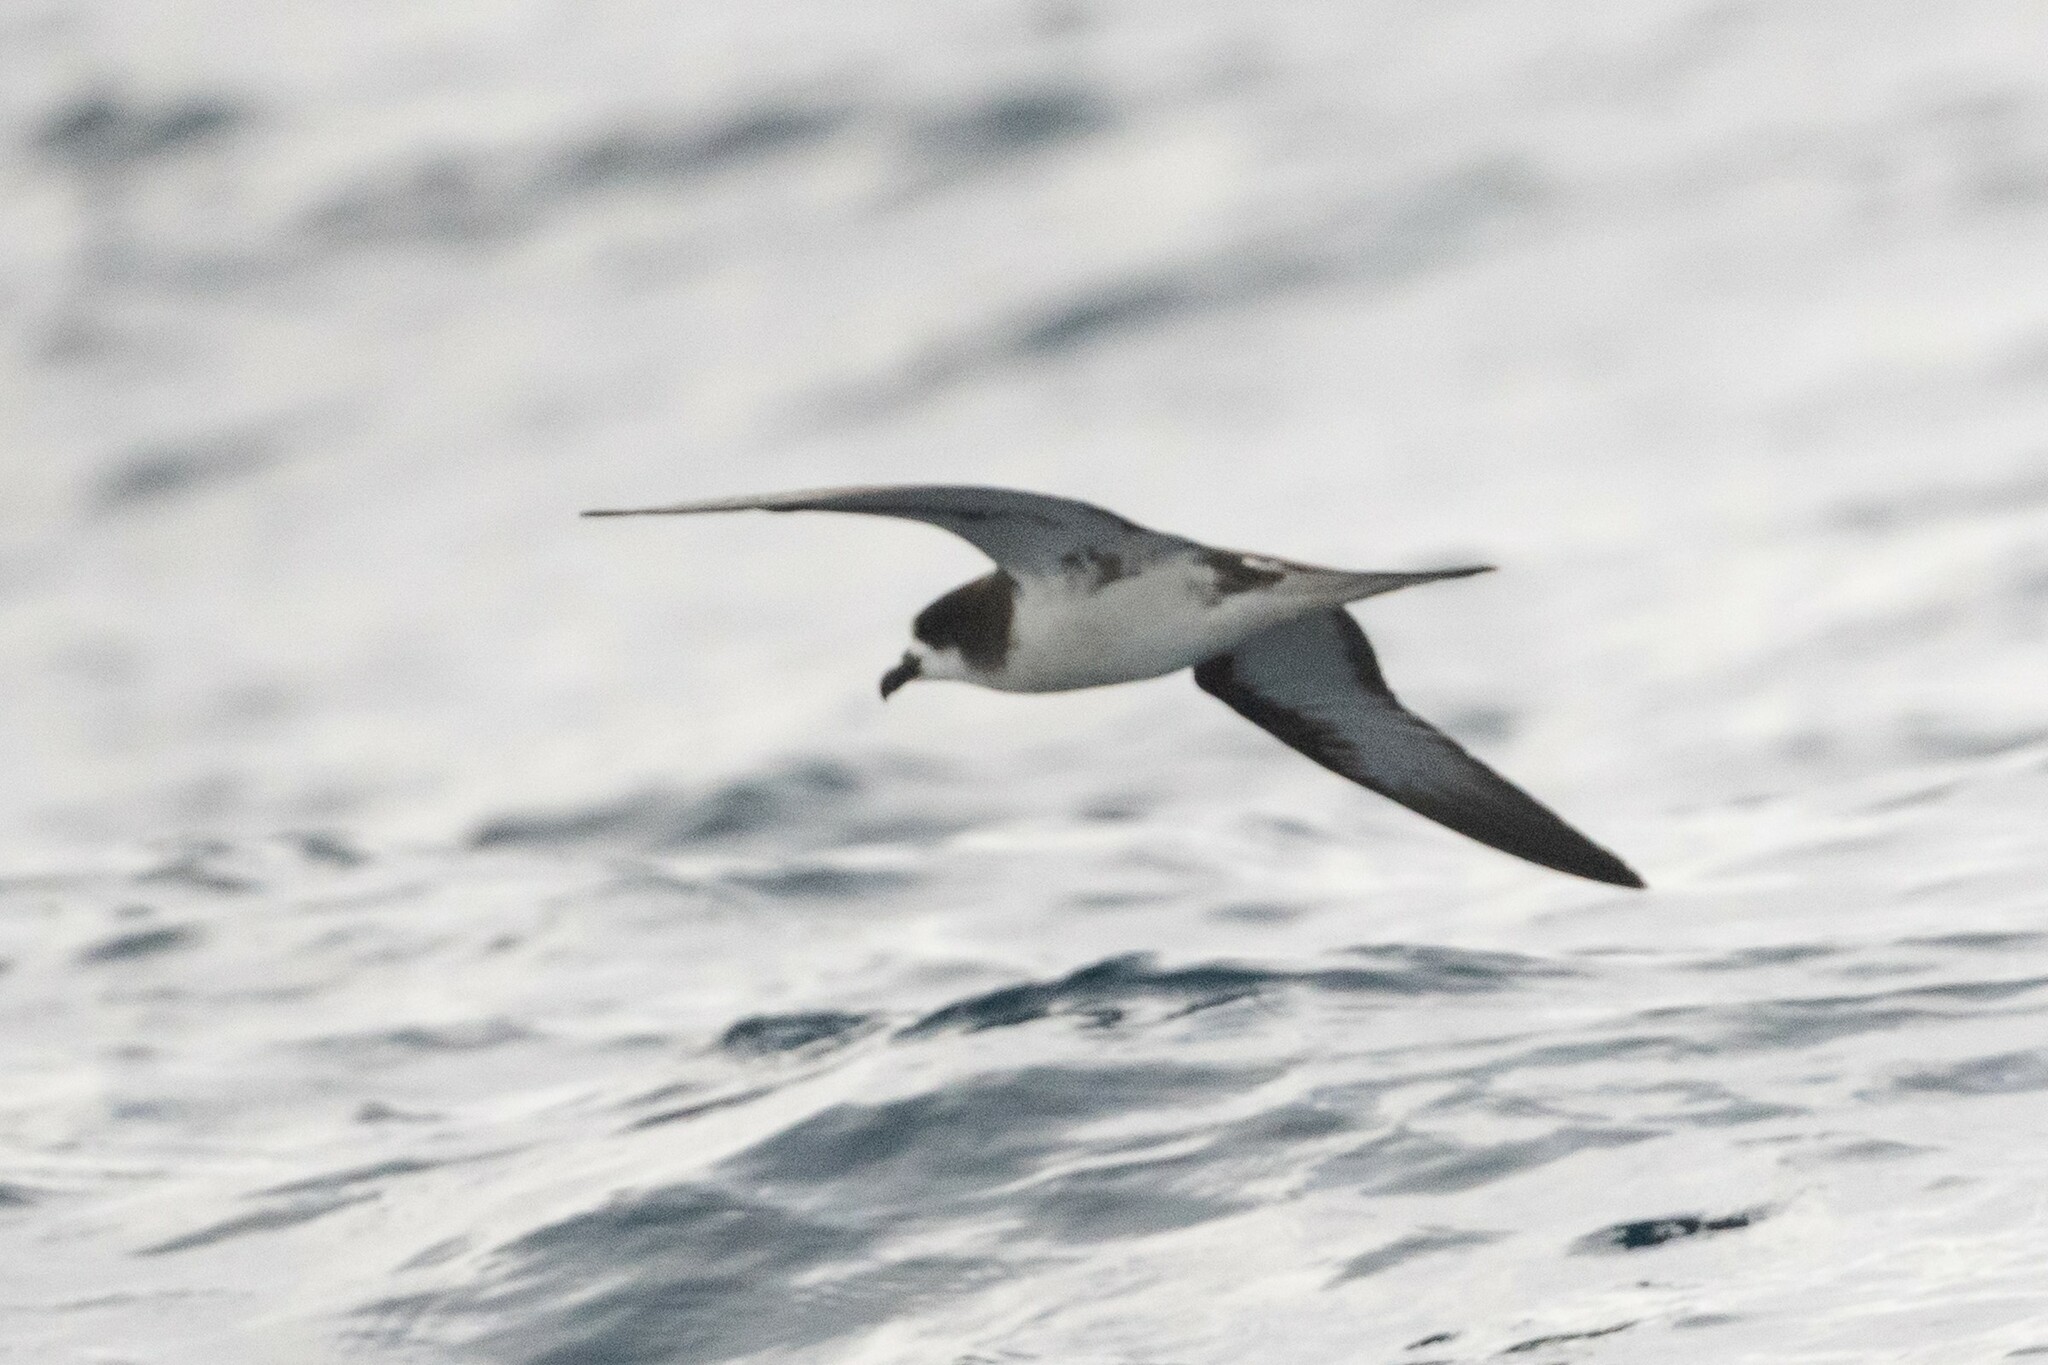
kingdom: Animalia
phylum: Chordata
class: Aves
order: Procellariiformes
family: Procellariidae
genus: Pterodroma
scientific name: Pterodroma phaeopygia
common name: Galapagos petrel
